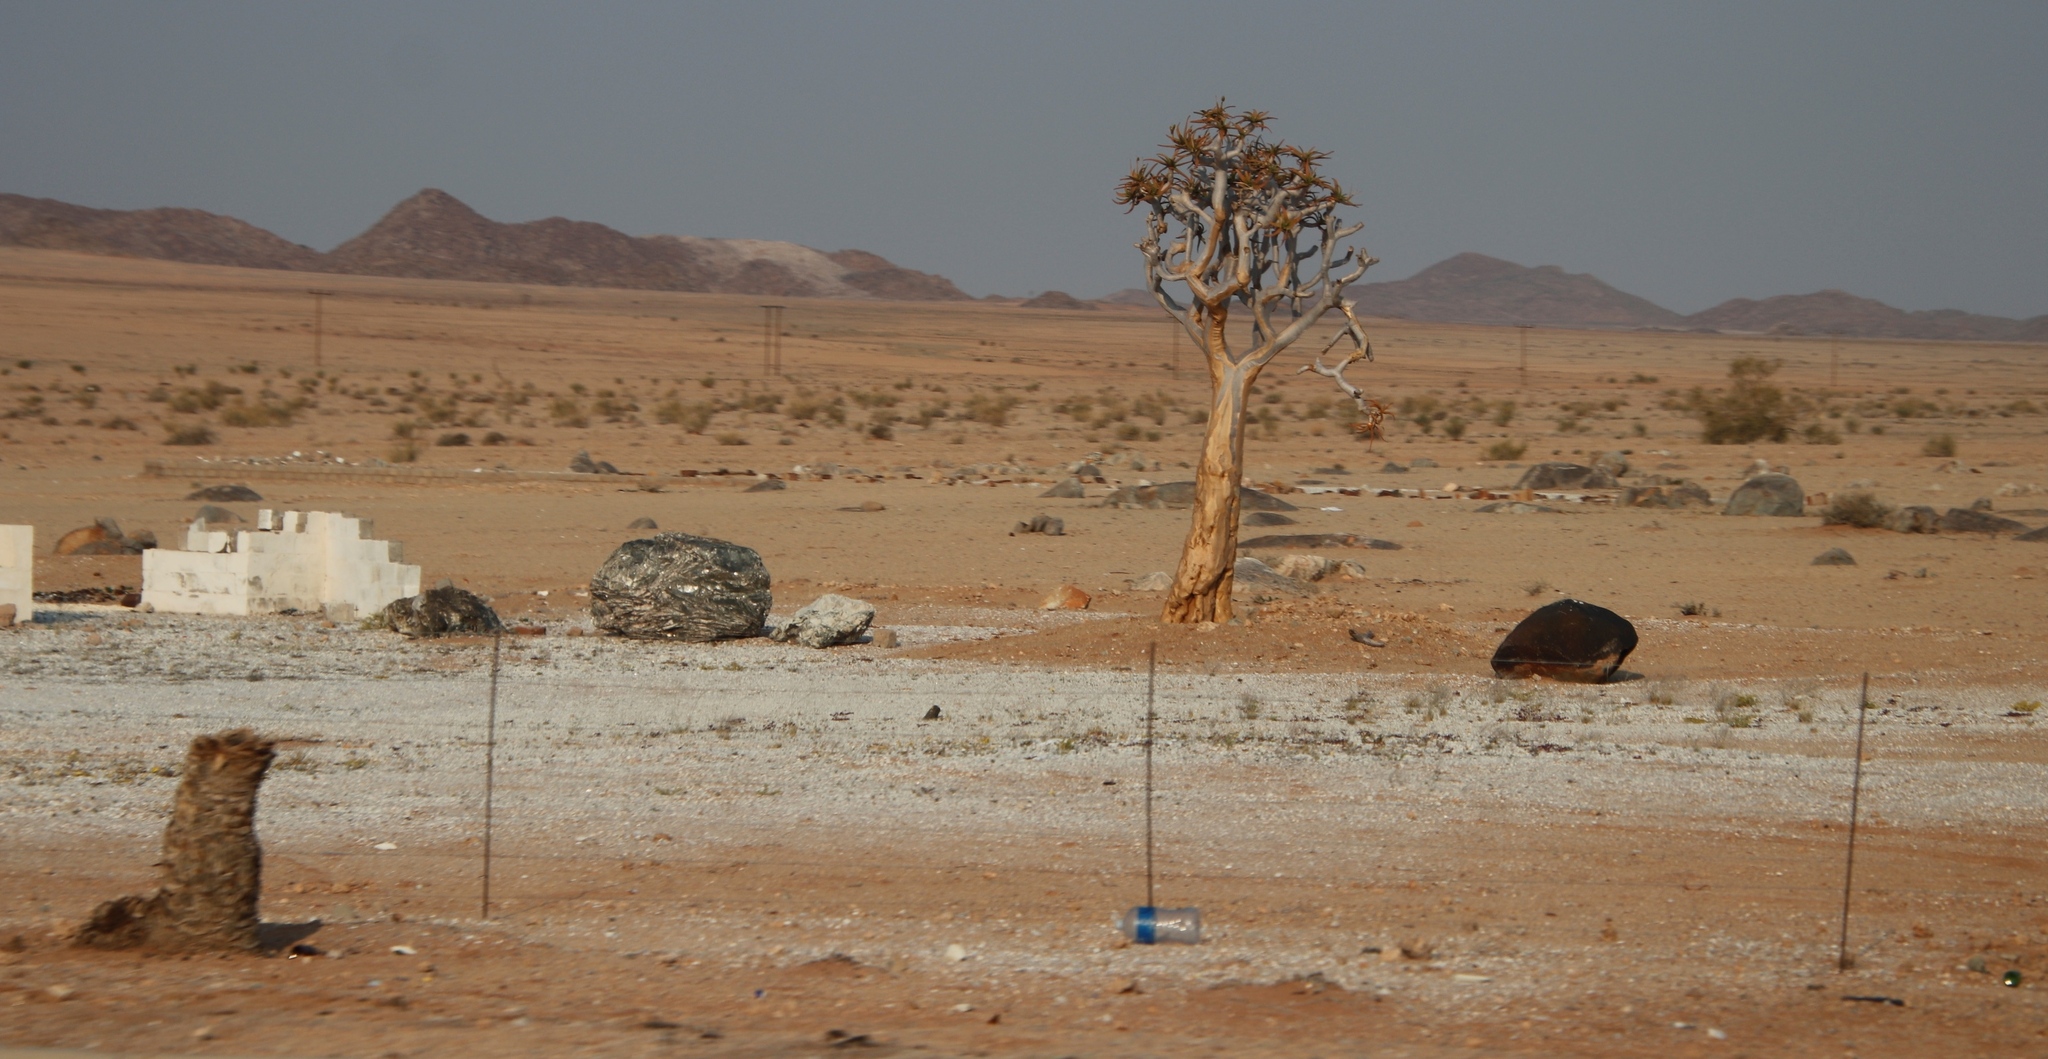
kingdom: Plantae
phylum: Tracheophyta
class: Liliopsida
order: Asparagales
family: Asphodelaceae
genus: Aloidendron
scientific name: Aloidendron dichotomum
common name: Quiver tree
